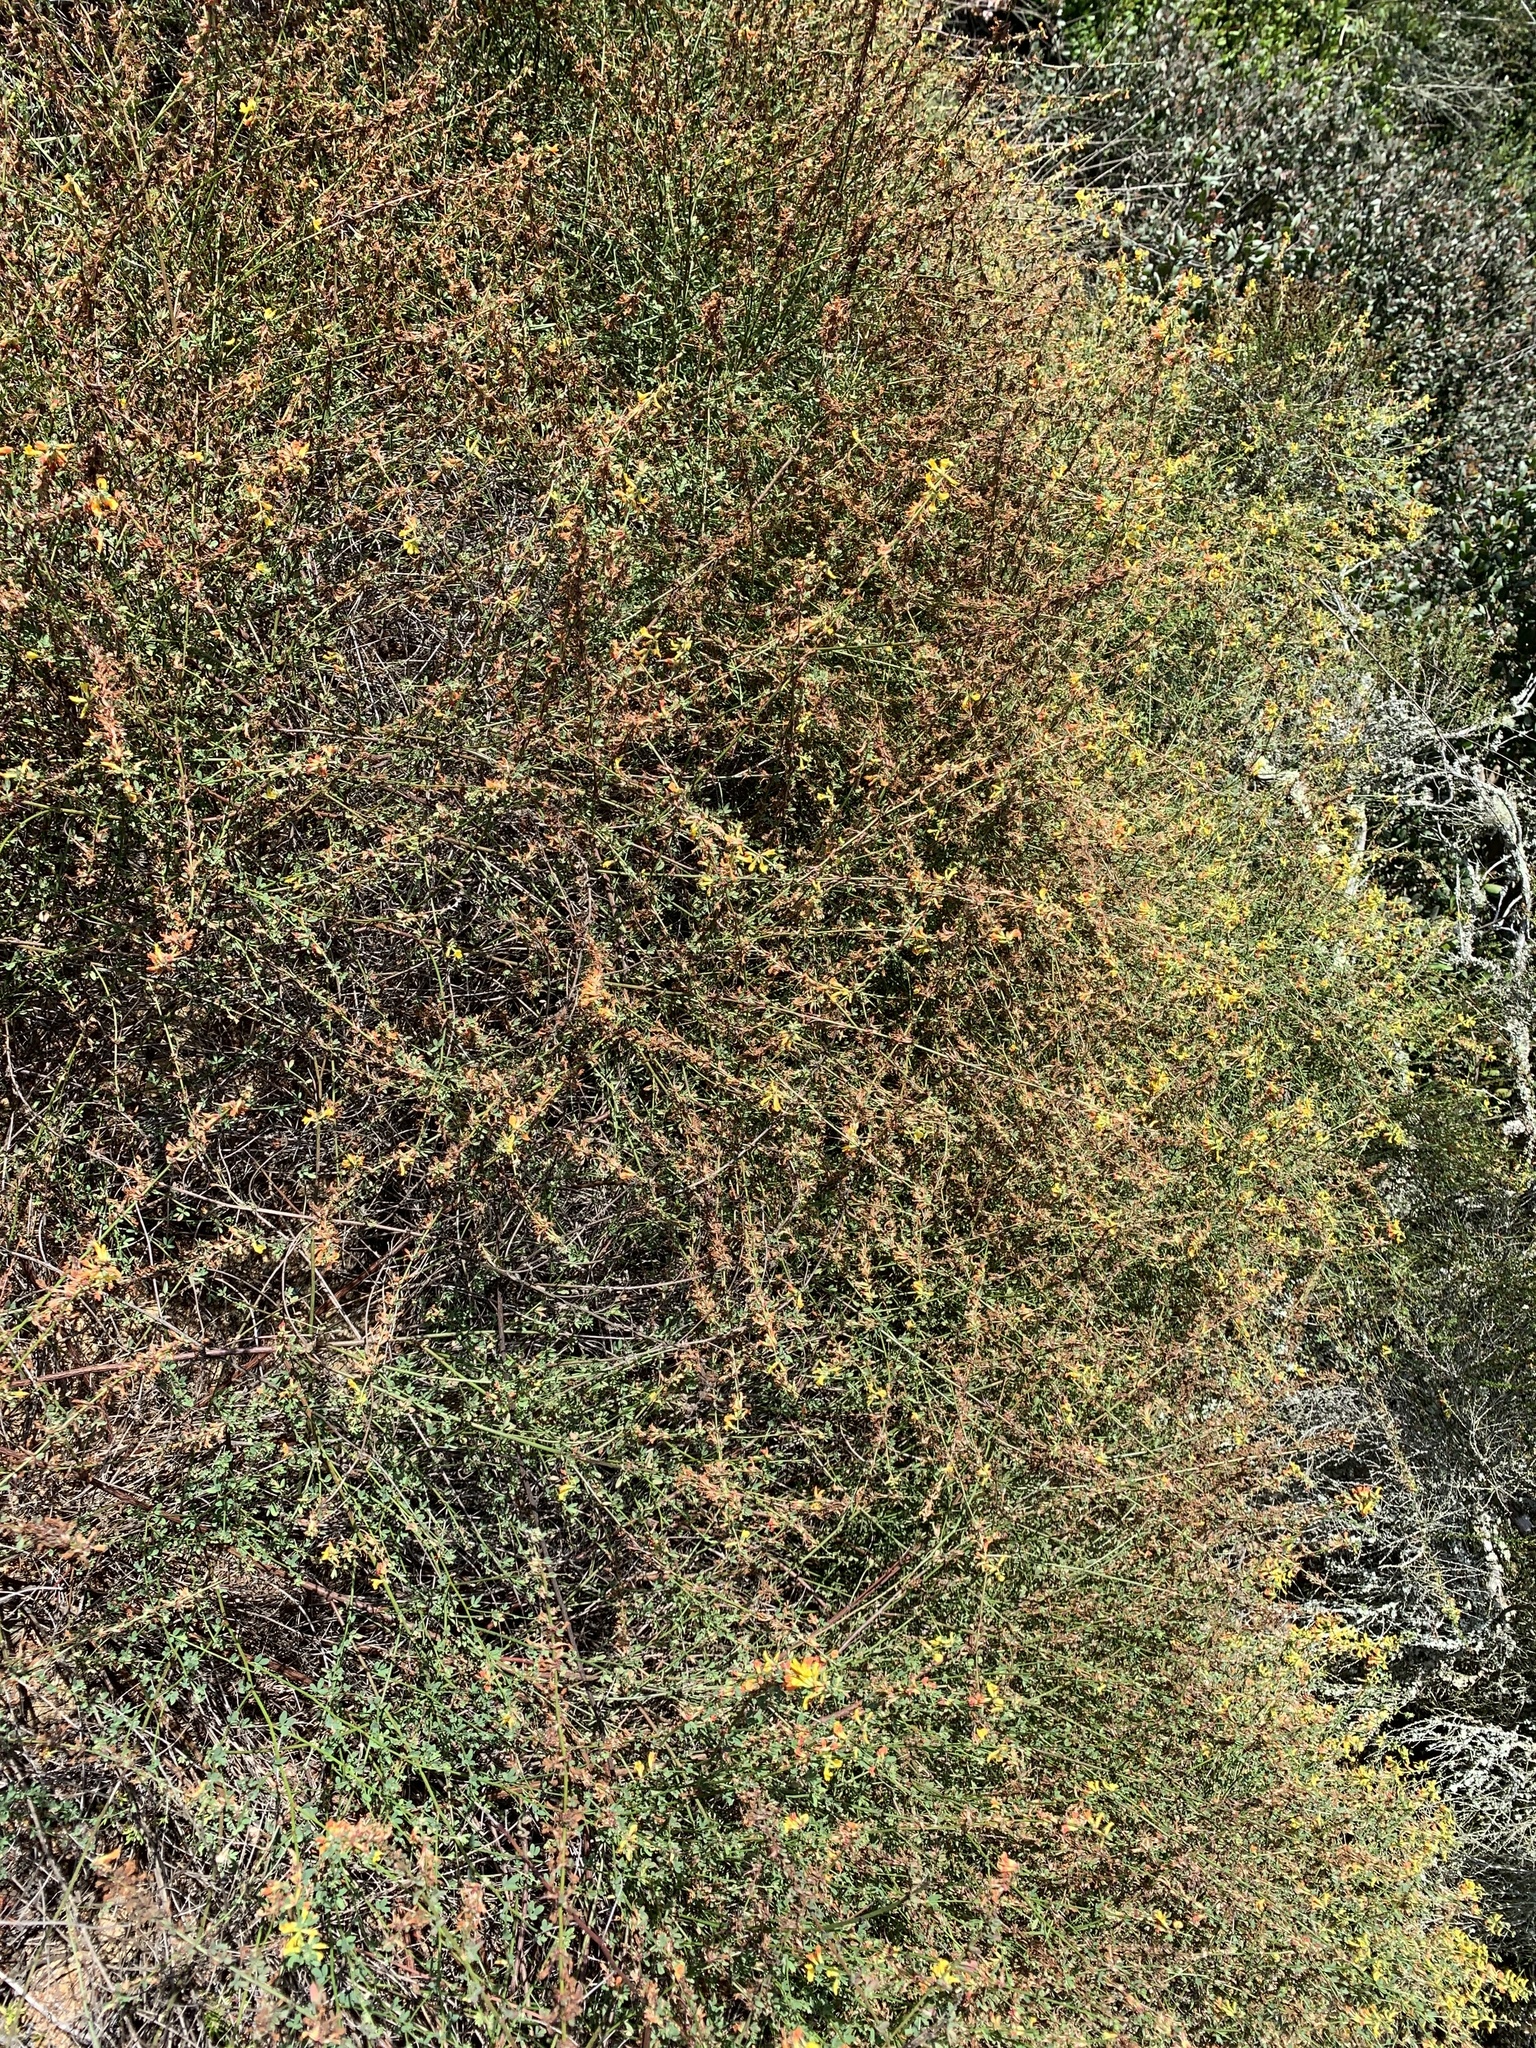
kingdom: Plantae
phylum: Tracheophyta
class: Magnoliopsida
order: Fabales
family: Fabaceae
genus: Acmispon
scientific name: Acmispon glaber
